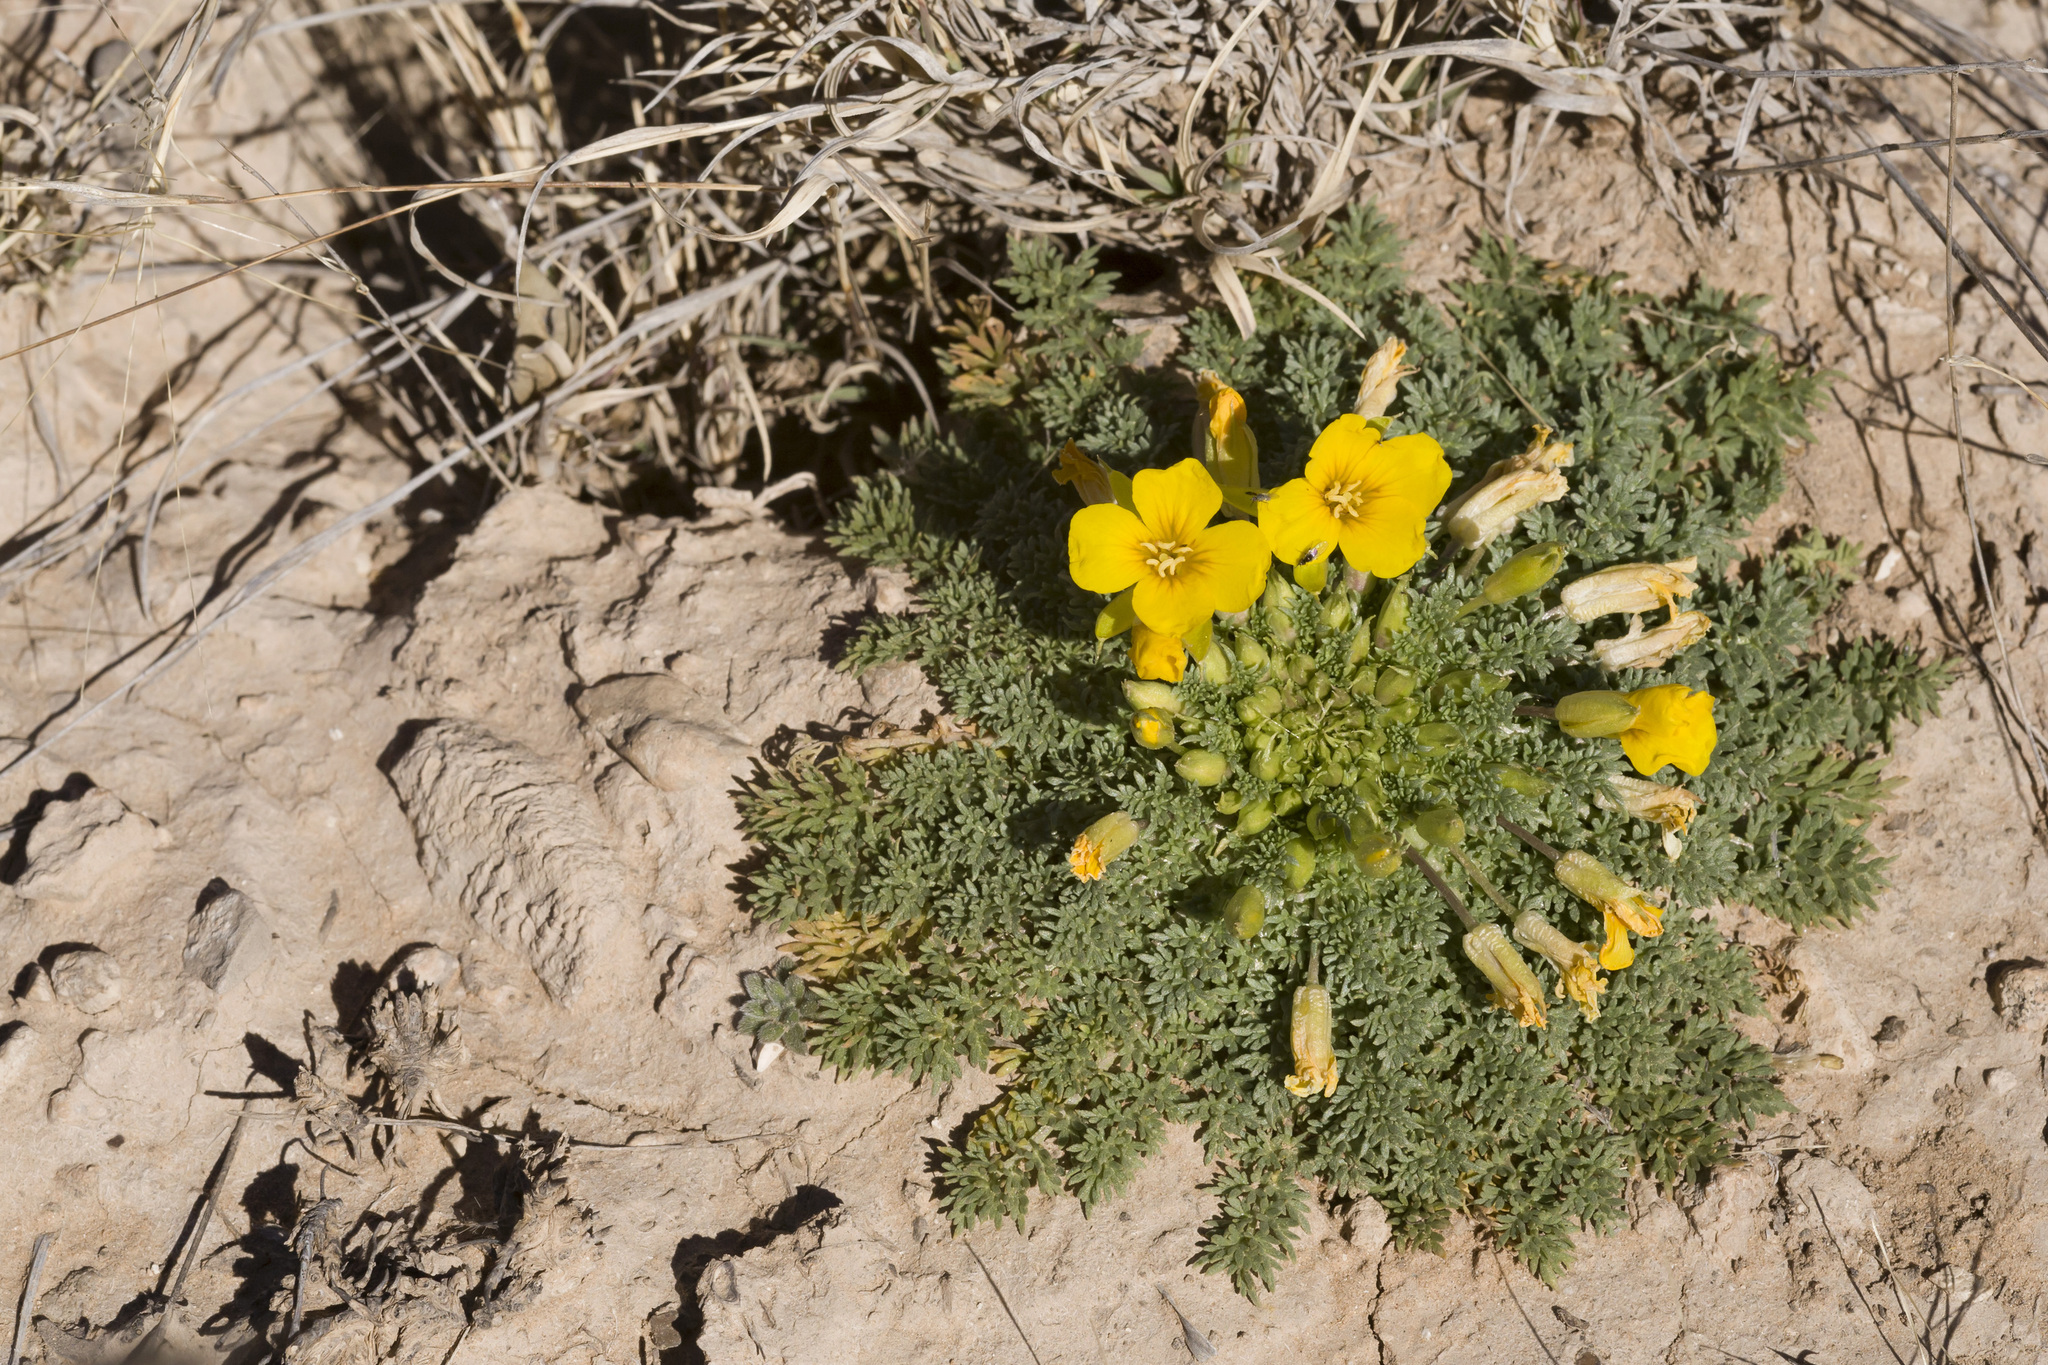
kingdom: Plantae
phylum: Tracheophyta
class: Magnoliopsida
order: Brassicales
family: Brassicaceae
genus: Selenia
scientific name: Selenia dissecta
